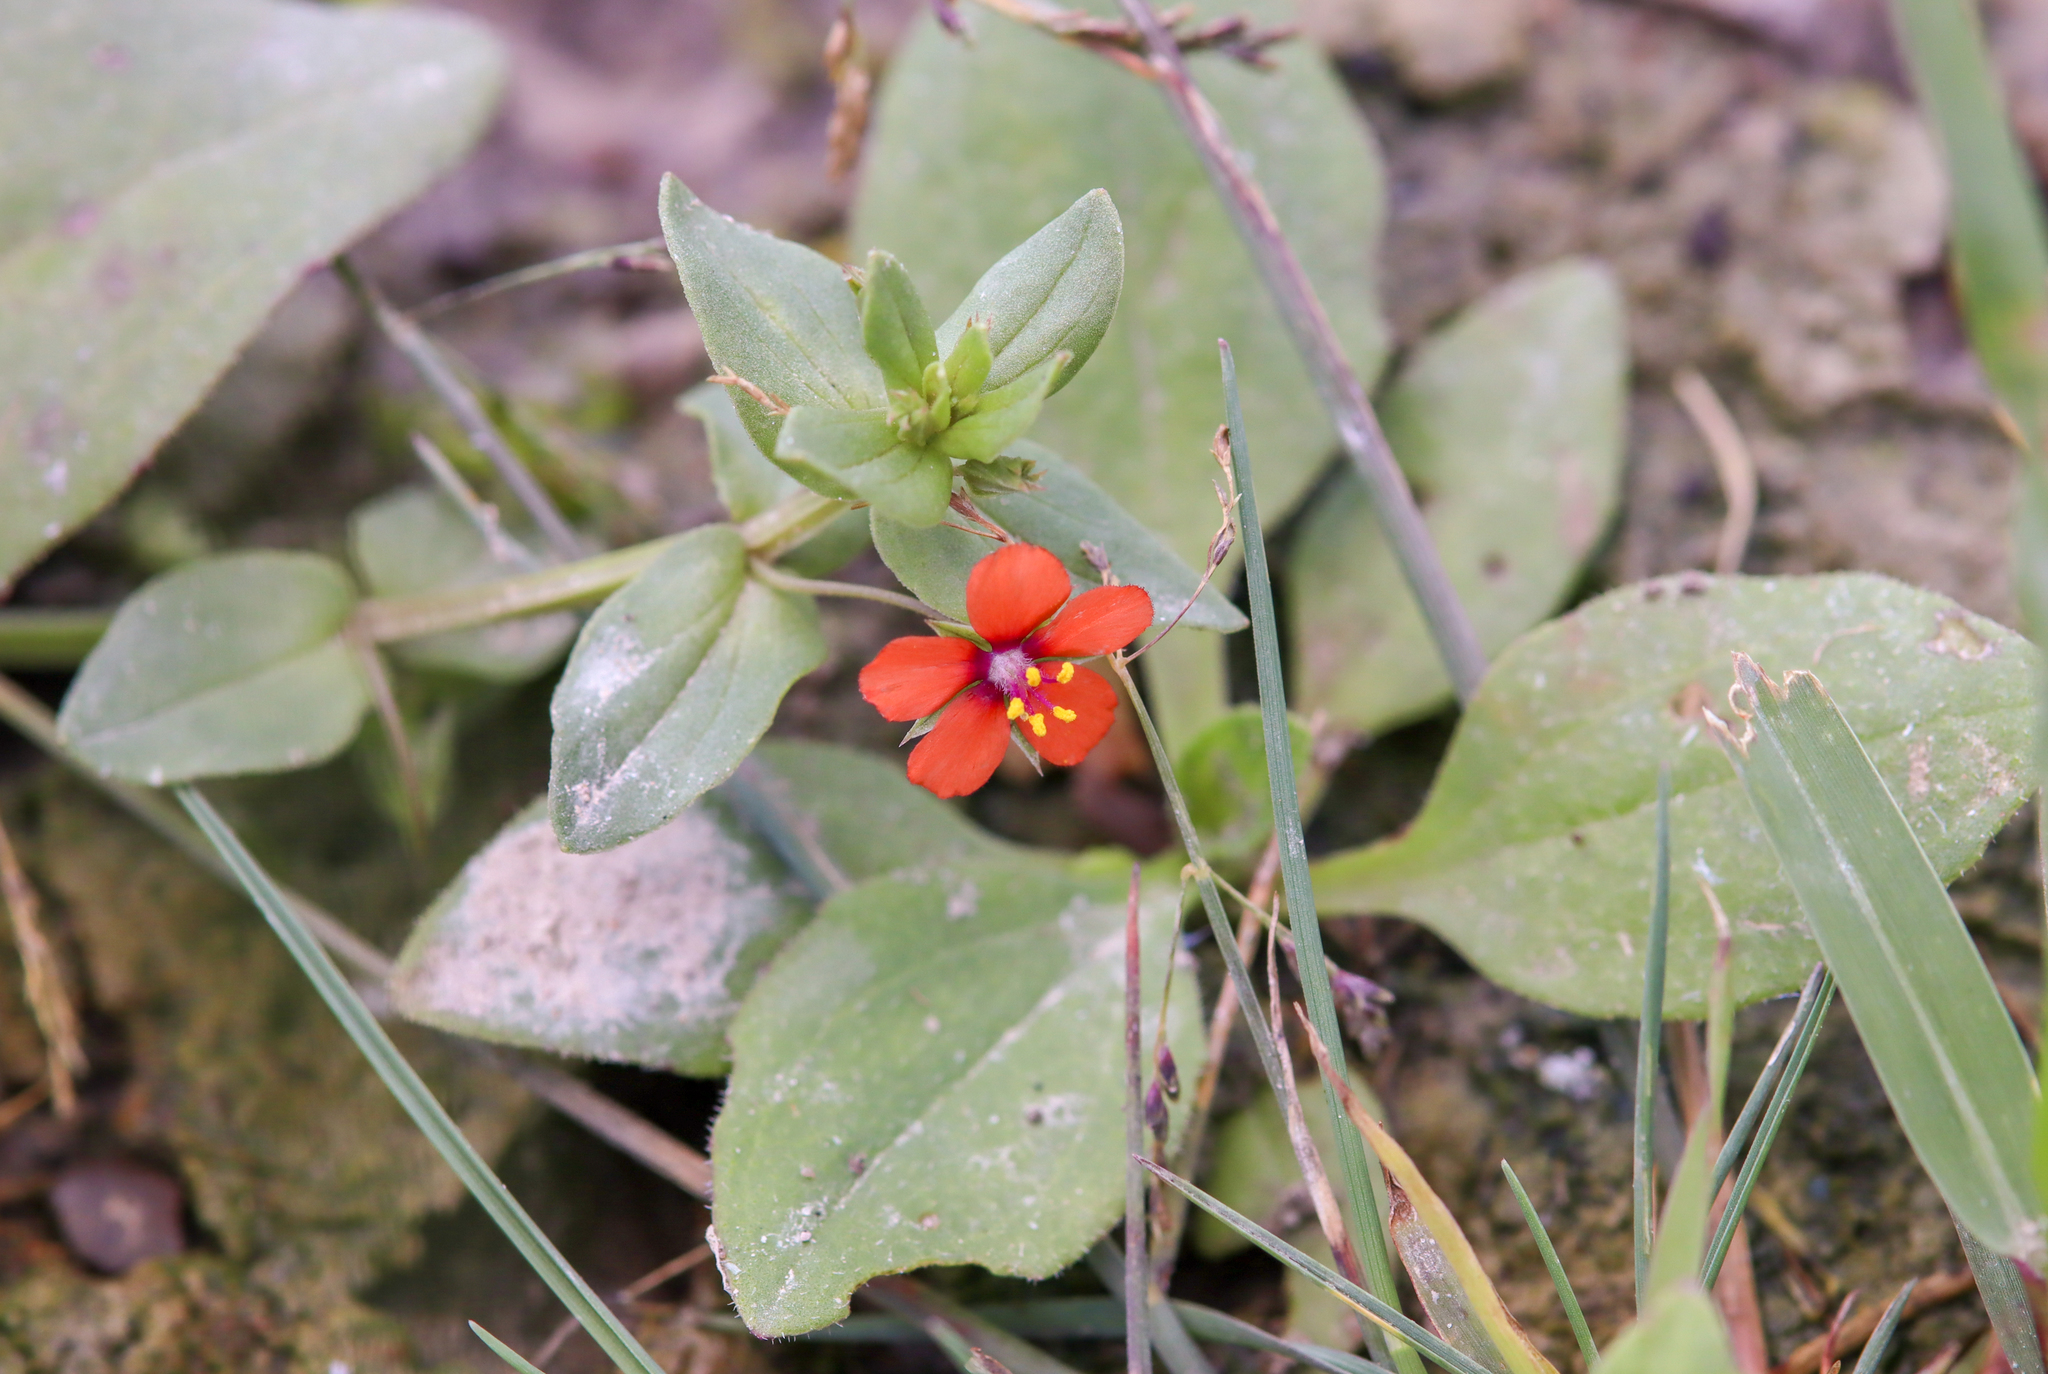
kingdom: Plantae
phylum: Tracheophyta
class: Magnoliopsida
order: Ericales
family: Primulaceae
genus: Lysimachia
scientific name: Lysimachia arvensis
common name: Scarlet pimpernel
